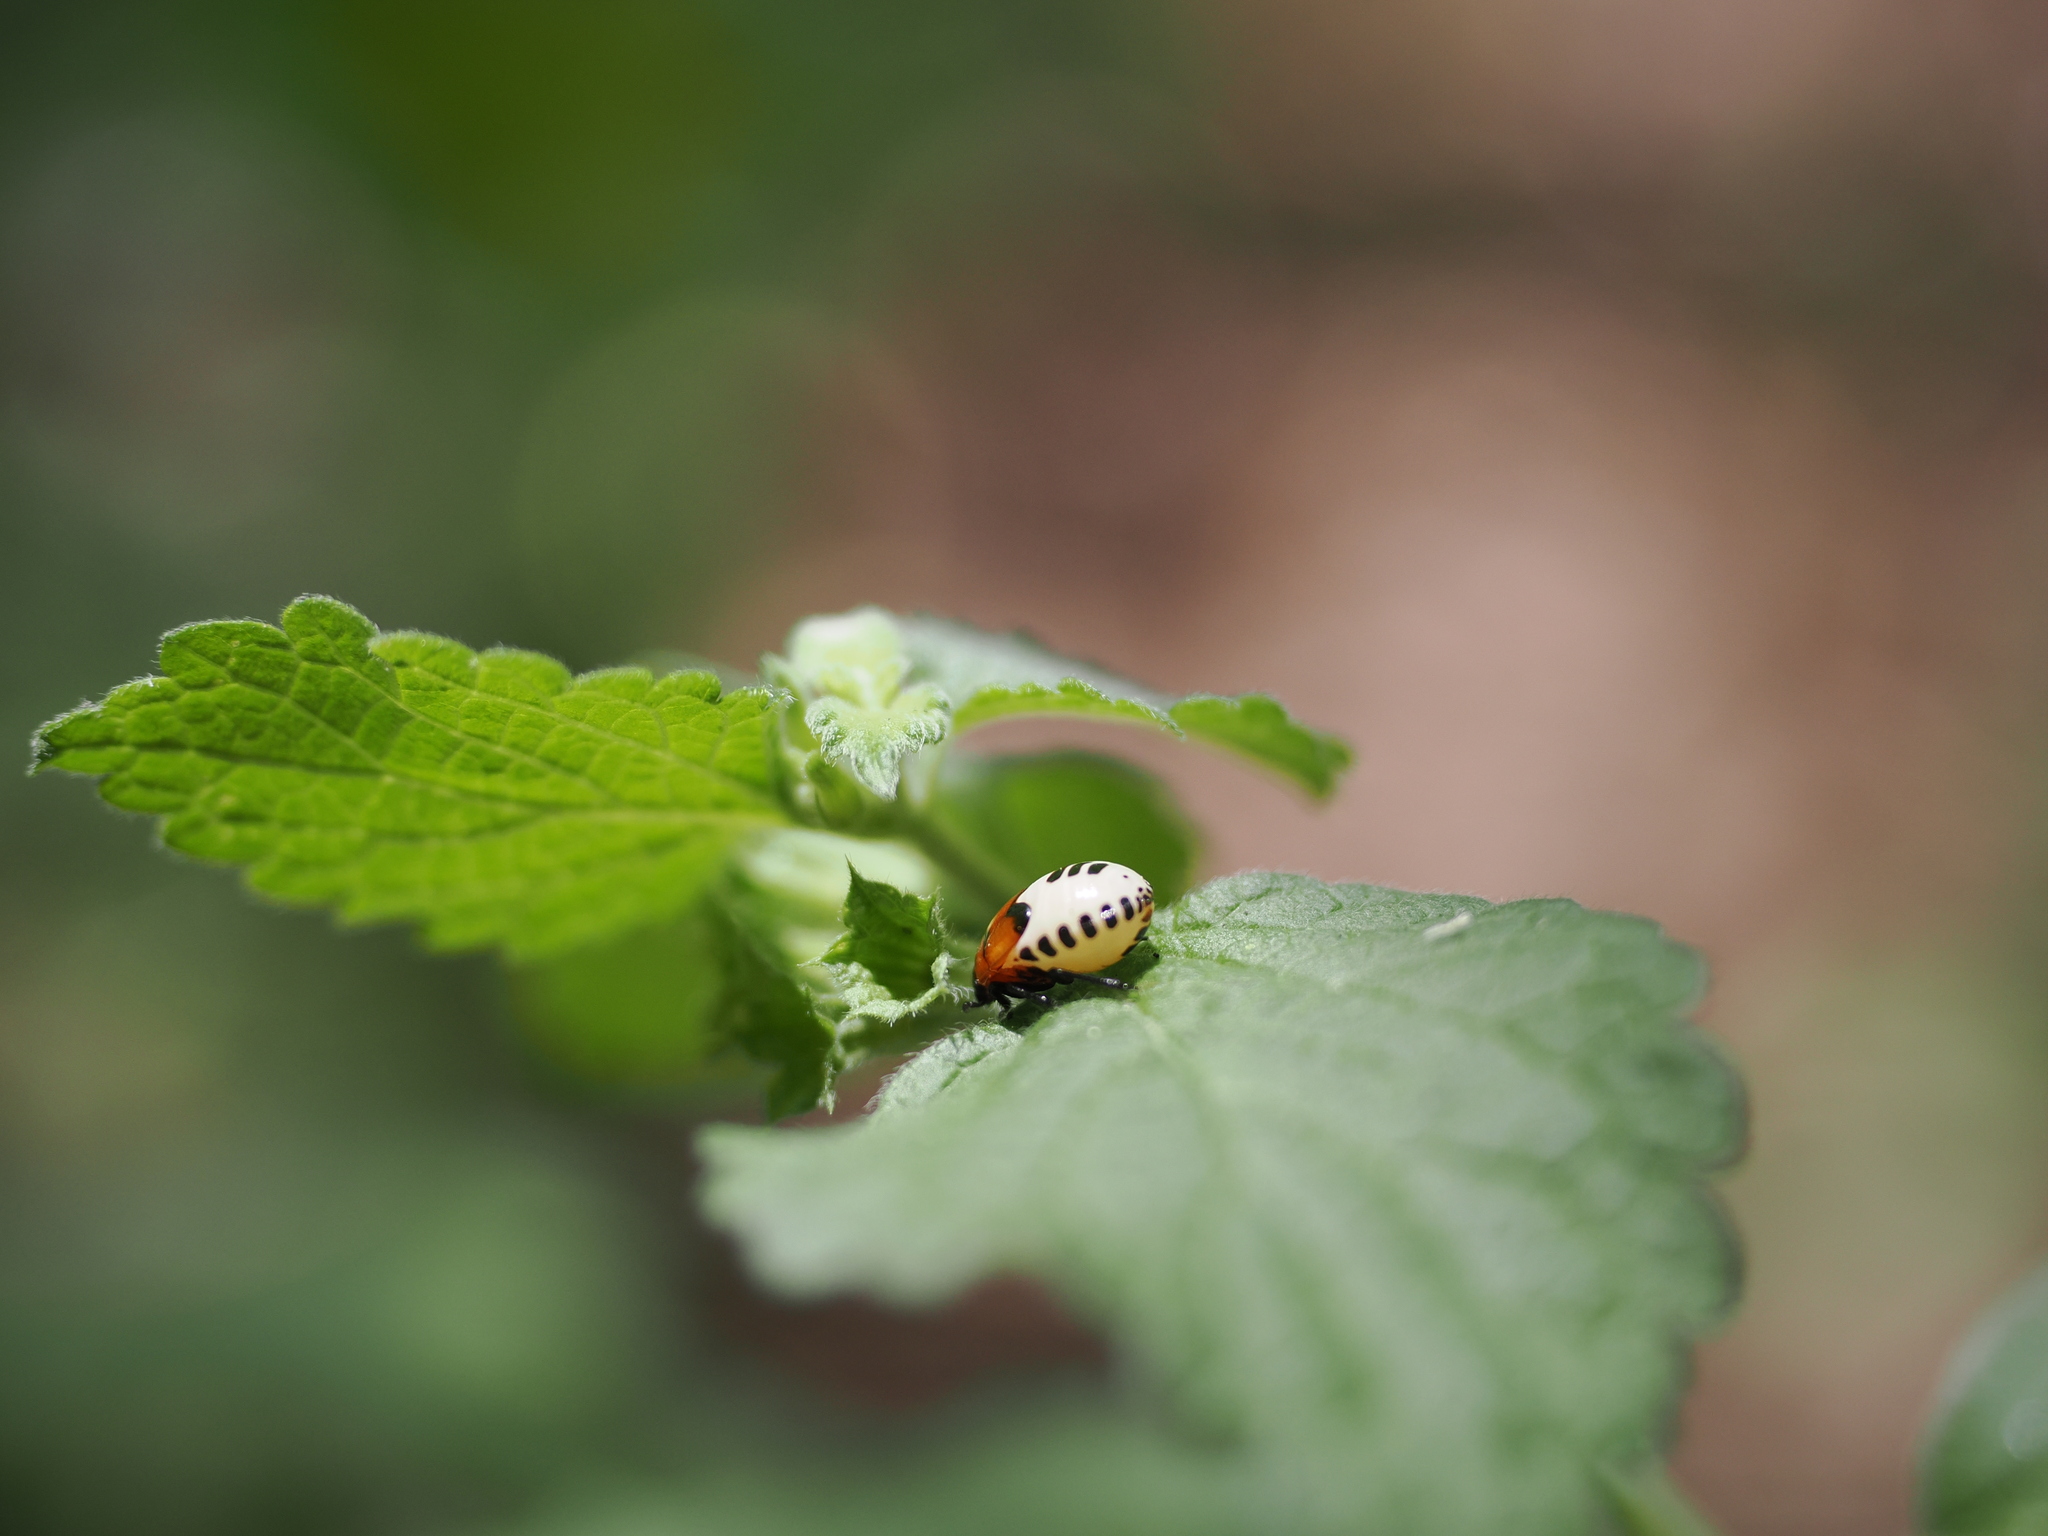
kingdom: Animalia
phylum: Arthropoda
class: Insecta
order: Hemiptera
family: Cydnidae
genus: Tritomegas
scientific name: Tritomegas sexmaculatus
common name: Rambur's pied shieldbug
